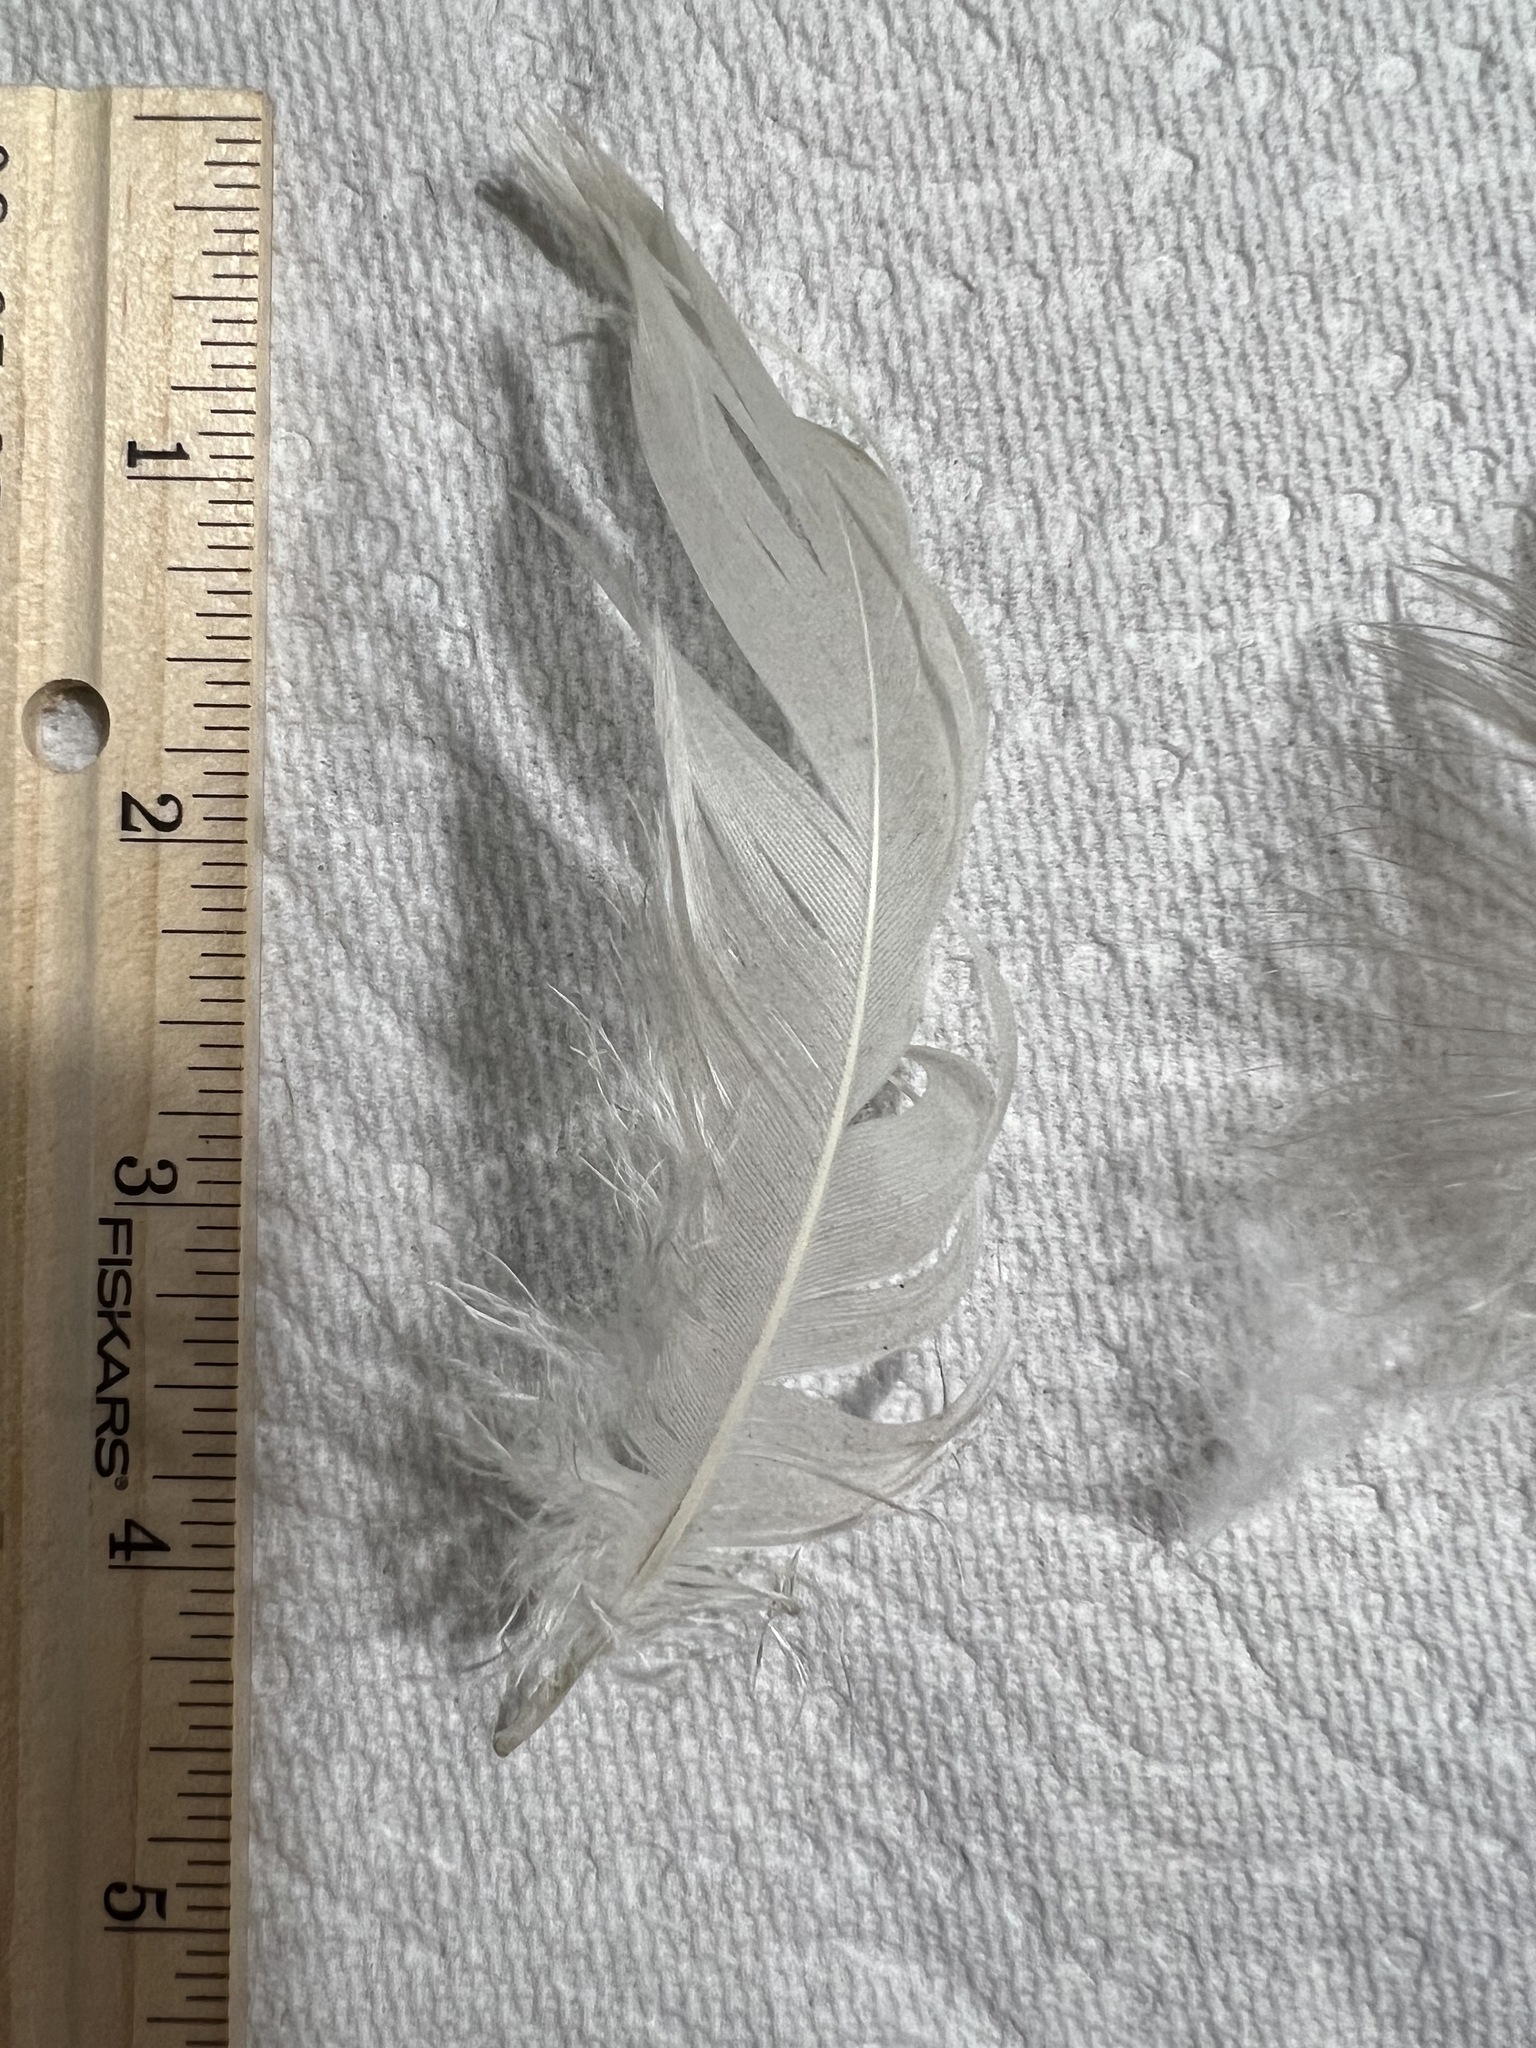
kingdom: Animalia
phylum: Chordata
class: Aves
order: Gruiformes
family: Gruidae
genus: Grus
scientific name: Grus canadensis
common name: Sandhill crane
